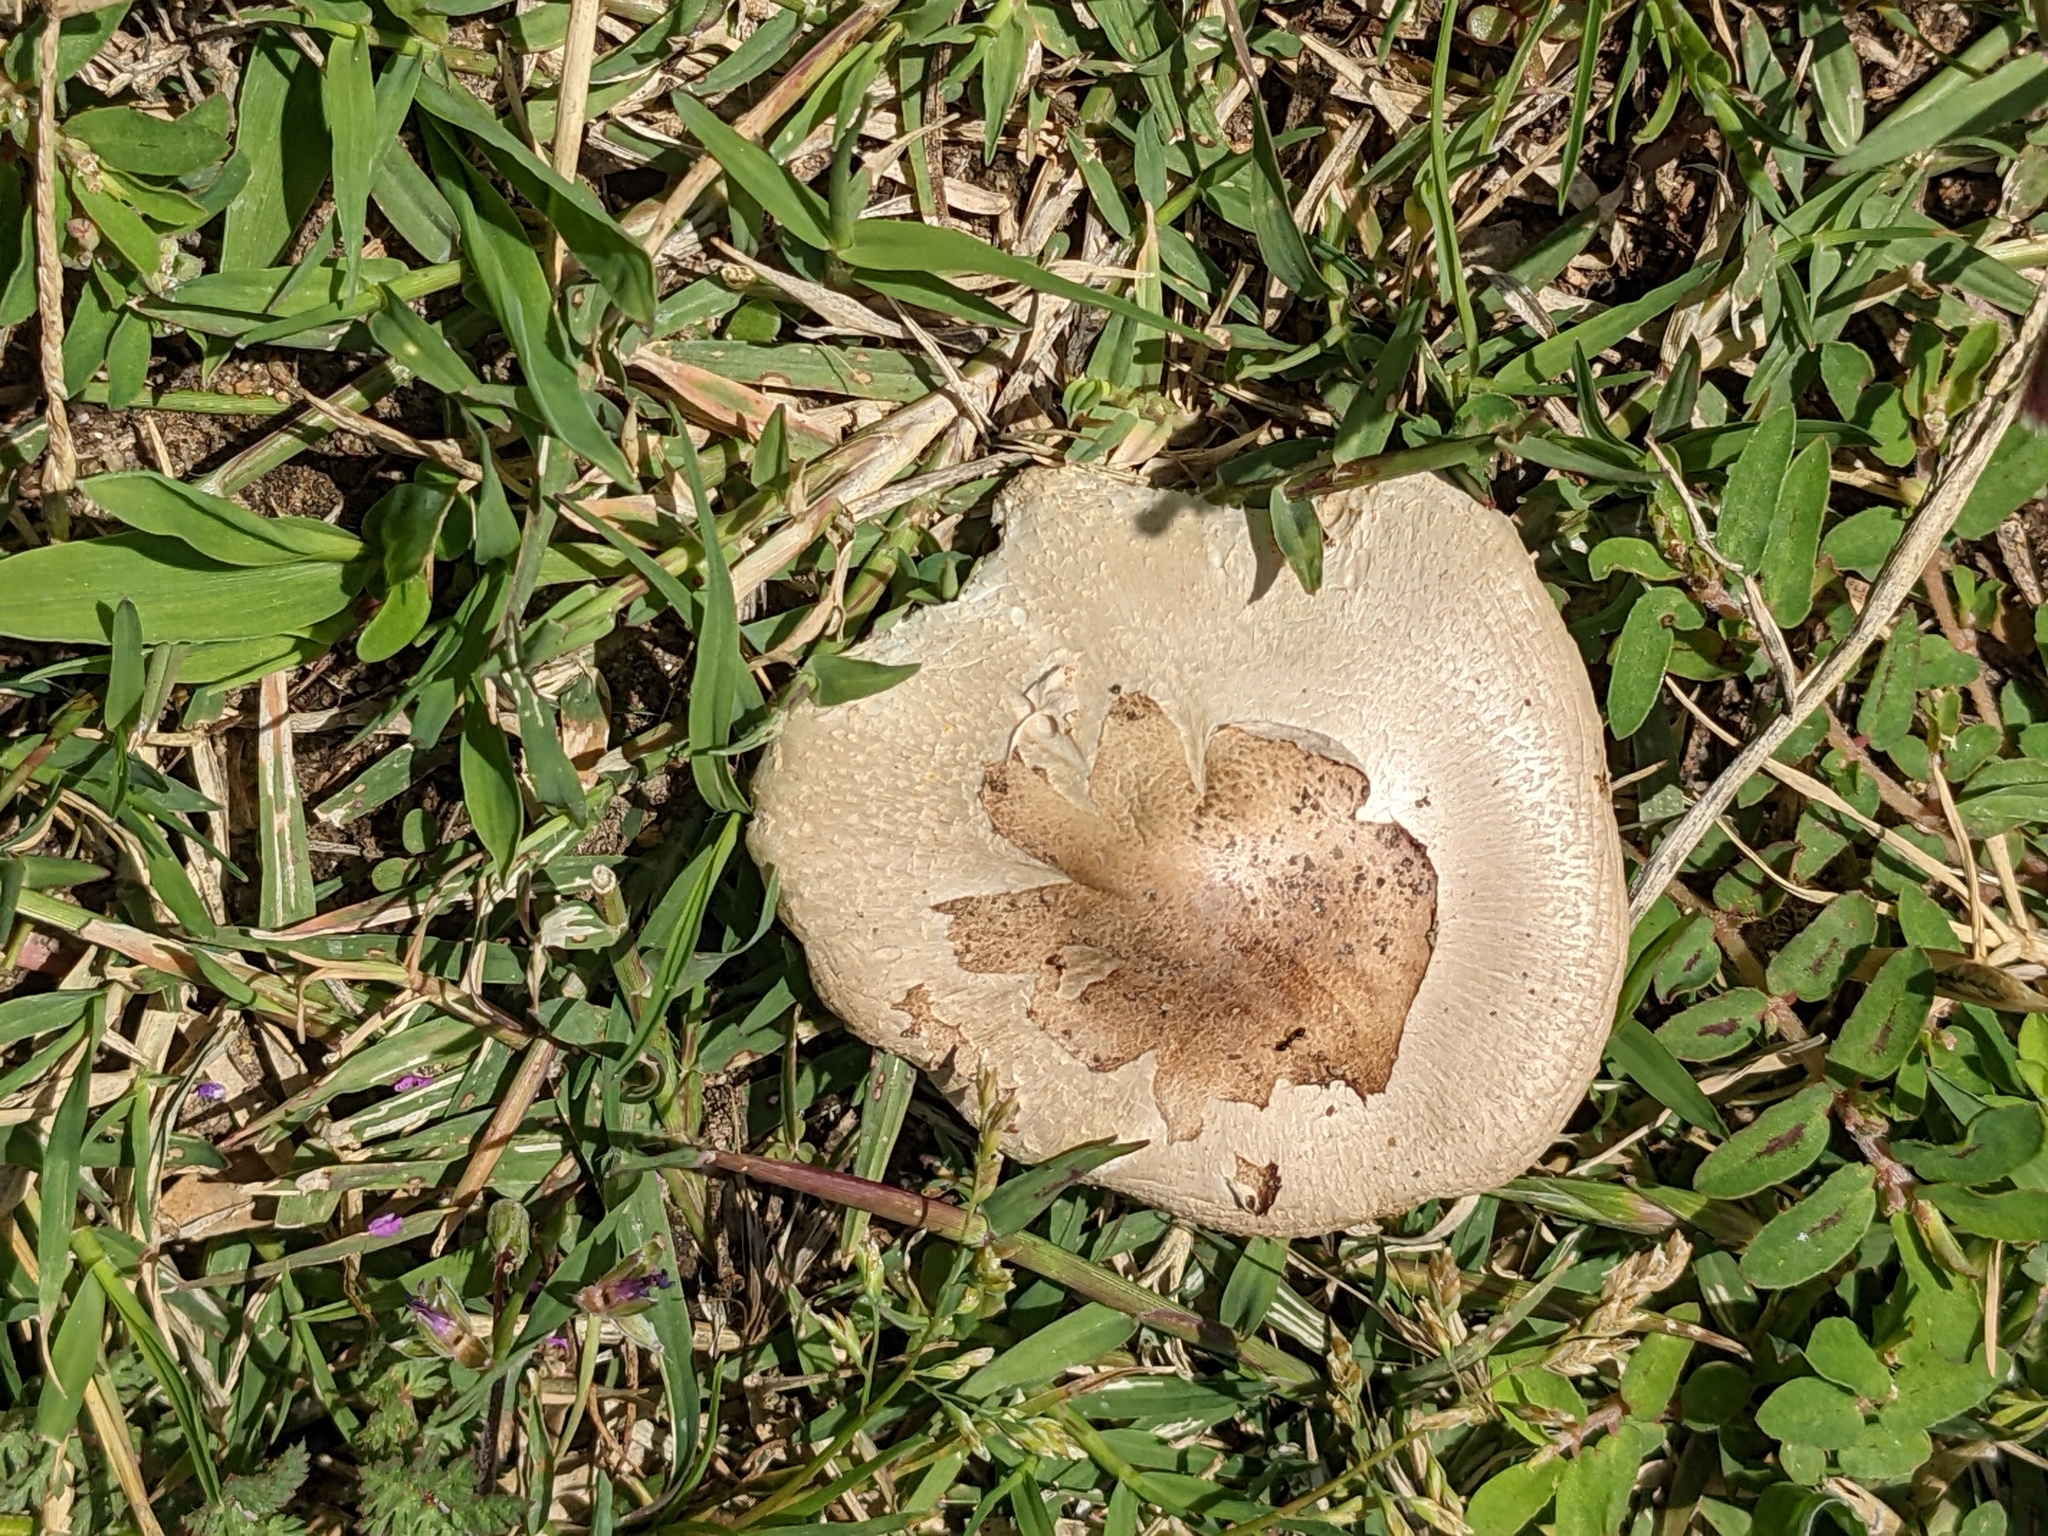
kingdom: Fungi
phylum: Basidiomycota
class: Agaricomycetes
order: Agaricales
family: Agaricaceae
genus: Chlorophyllum
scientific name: Chlorophyllum molybdites
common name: False parasol
